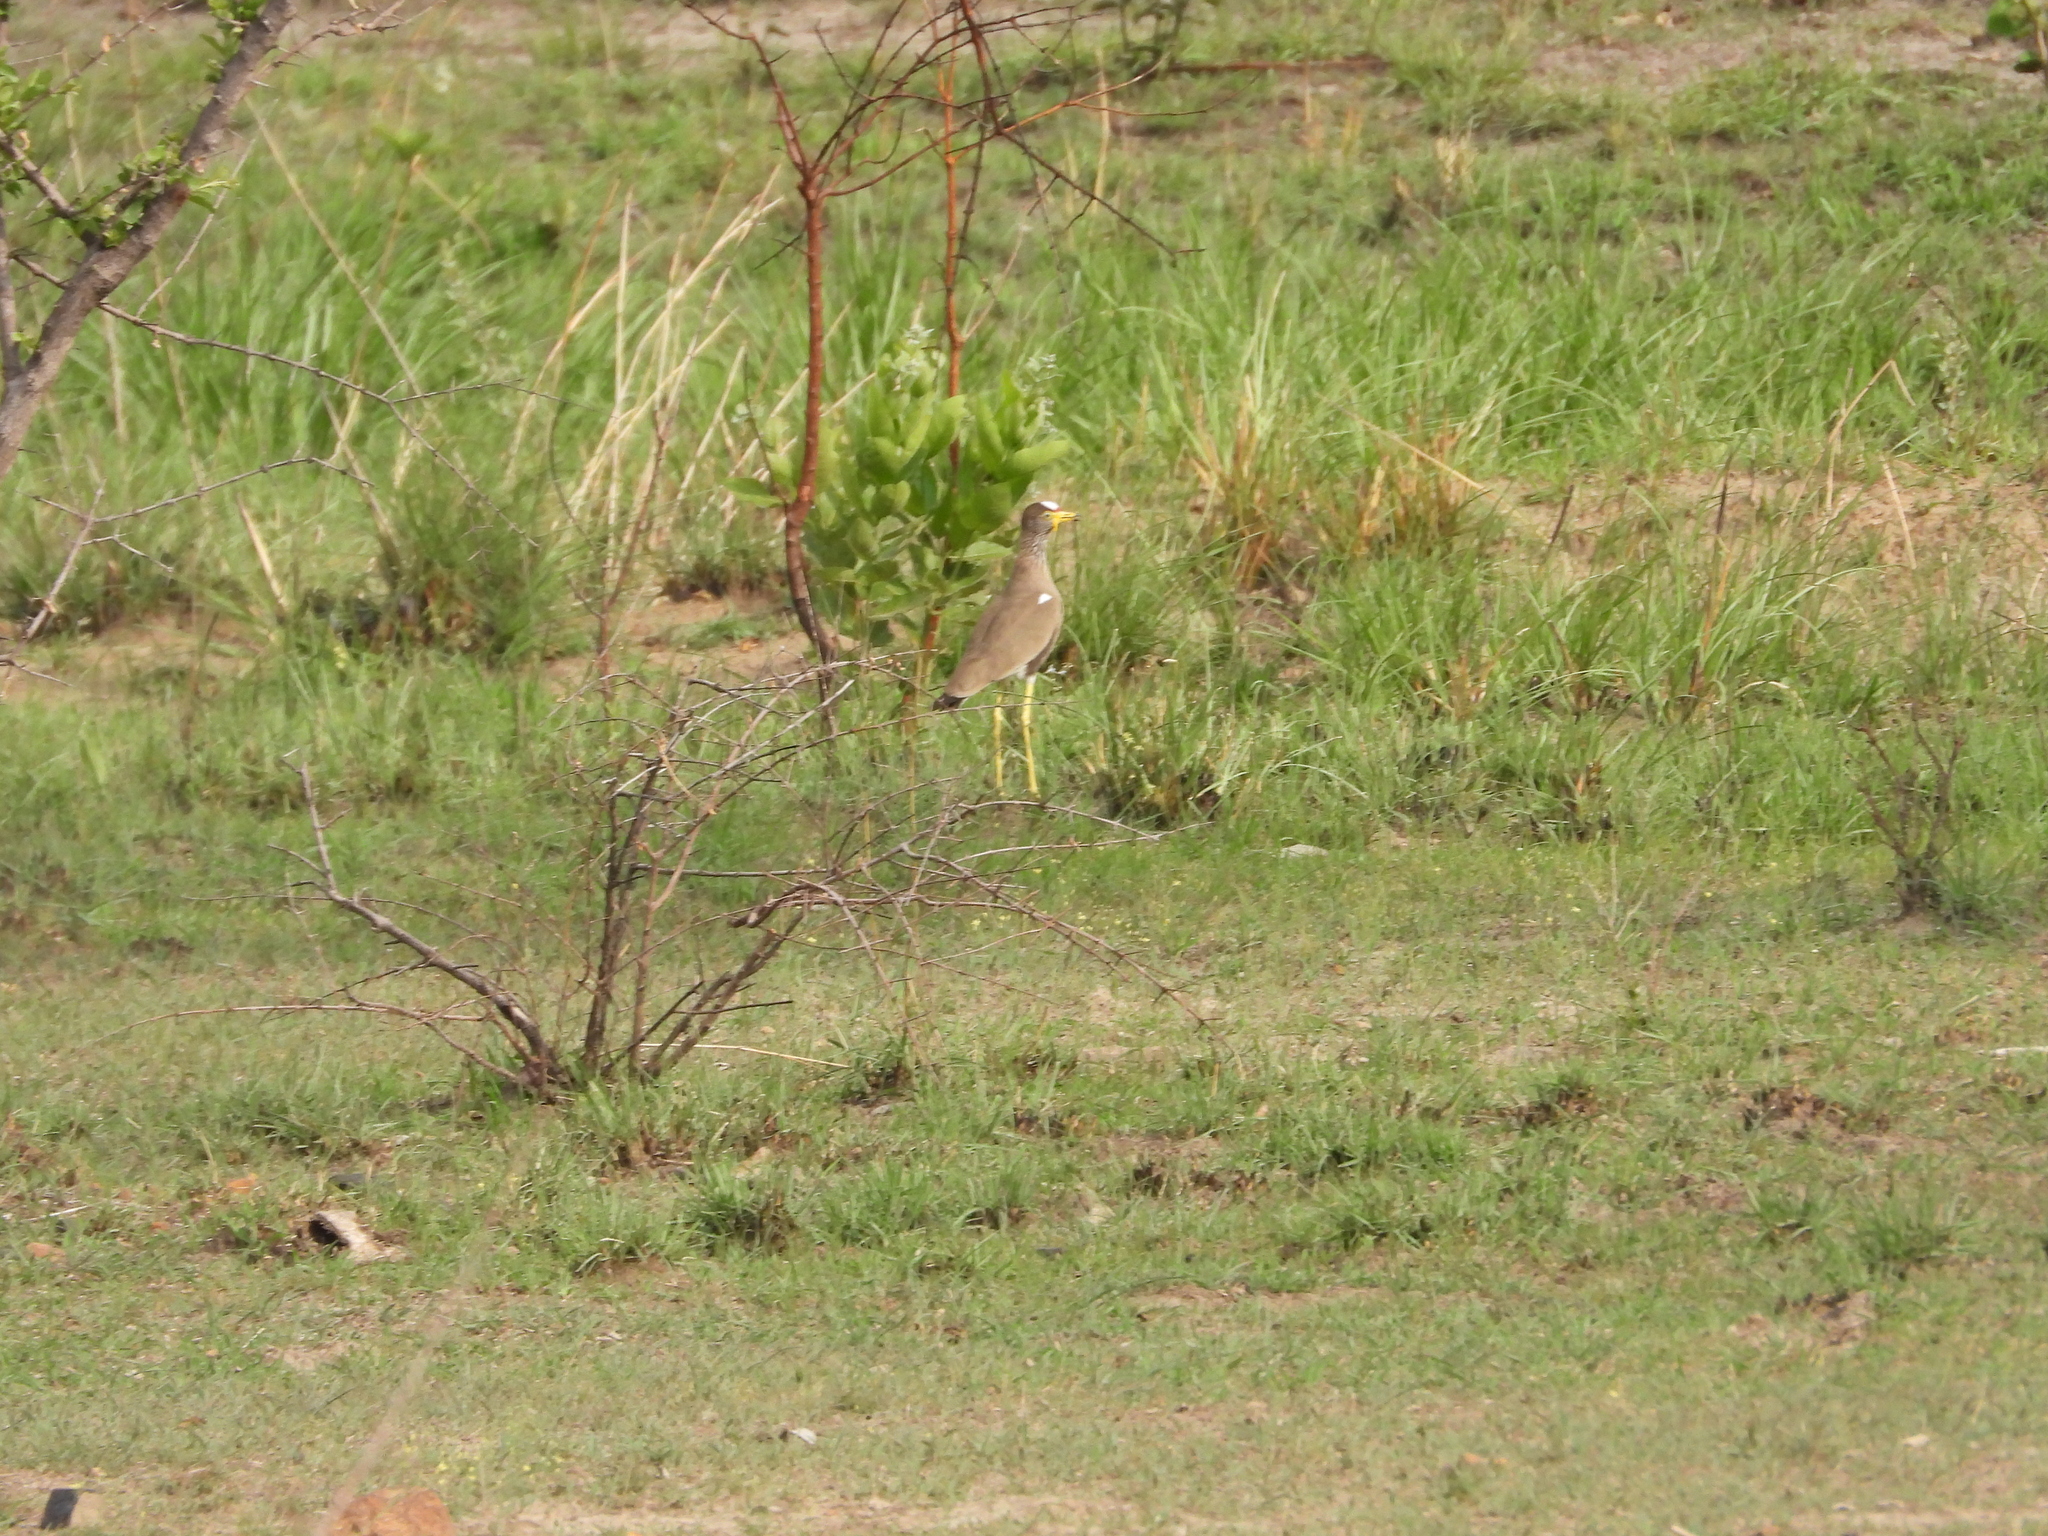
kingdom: Animalia
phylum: Chordata
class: Aves
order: Charadriiformes
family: Charadriidae
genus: Vanellus
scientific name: Vanellus senegallus
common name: African wattled lapwing
